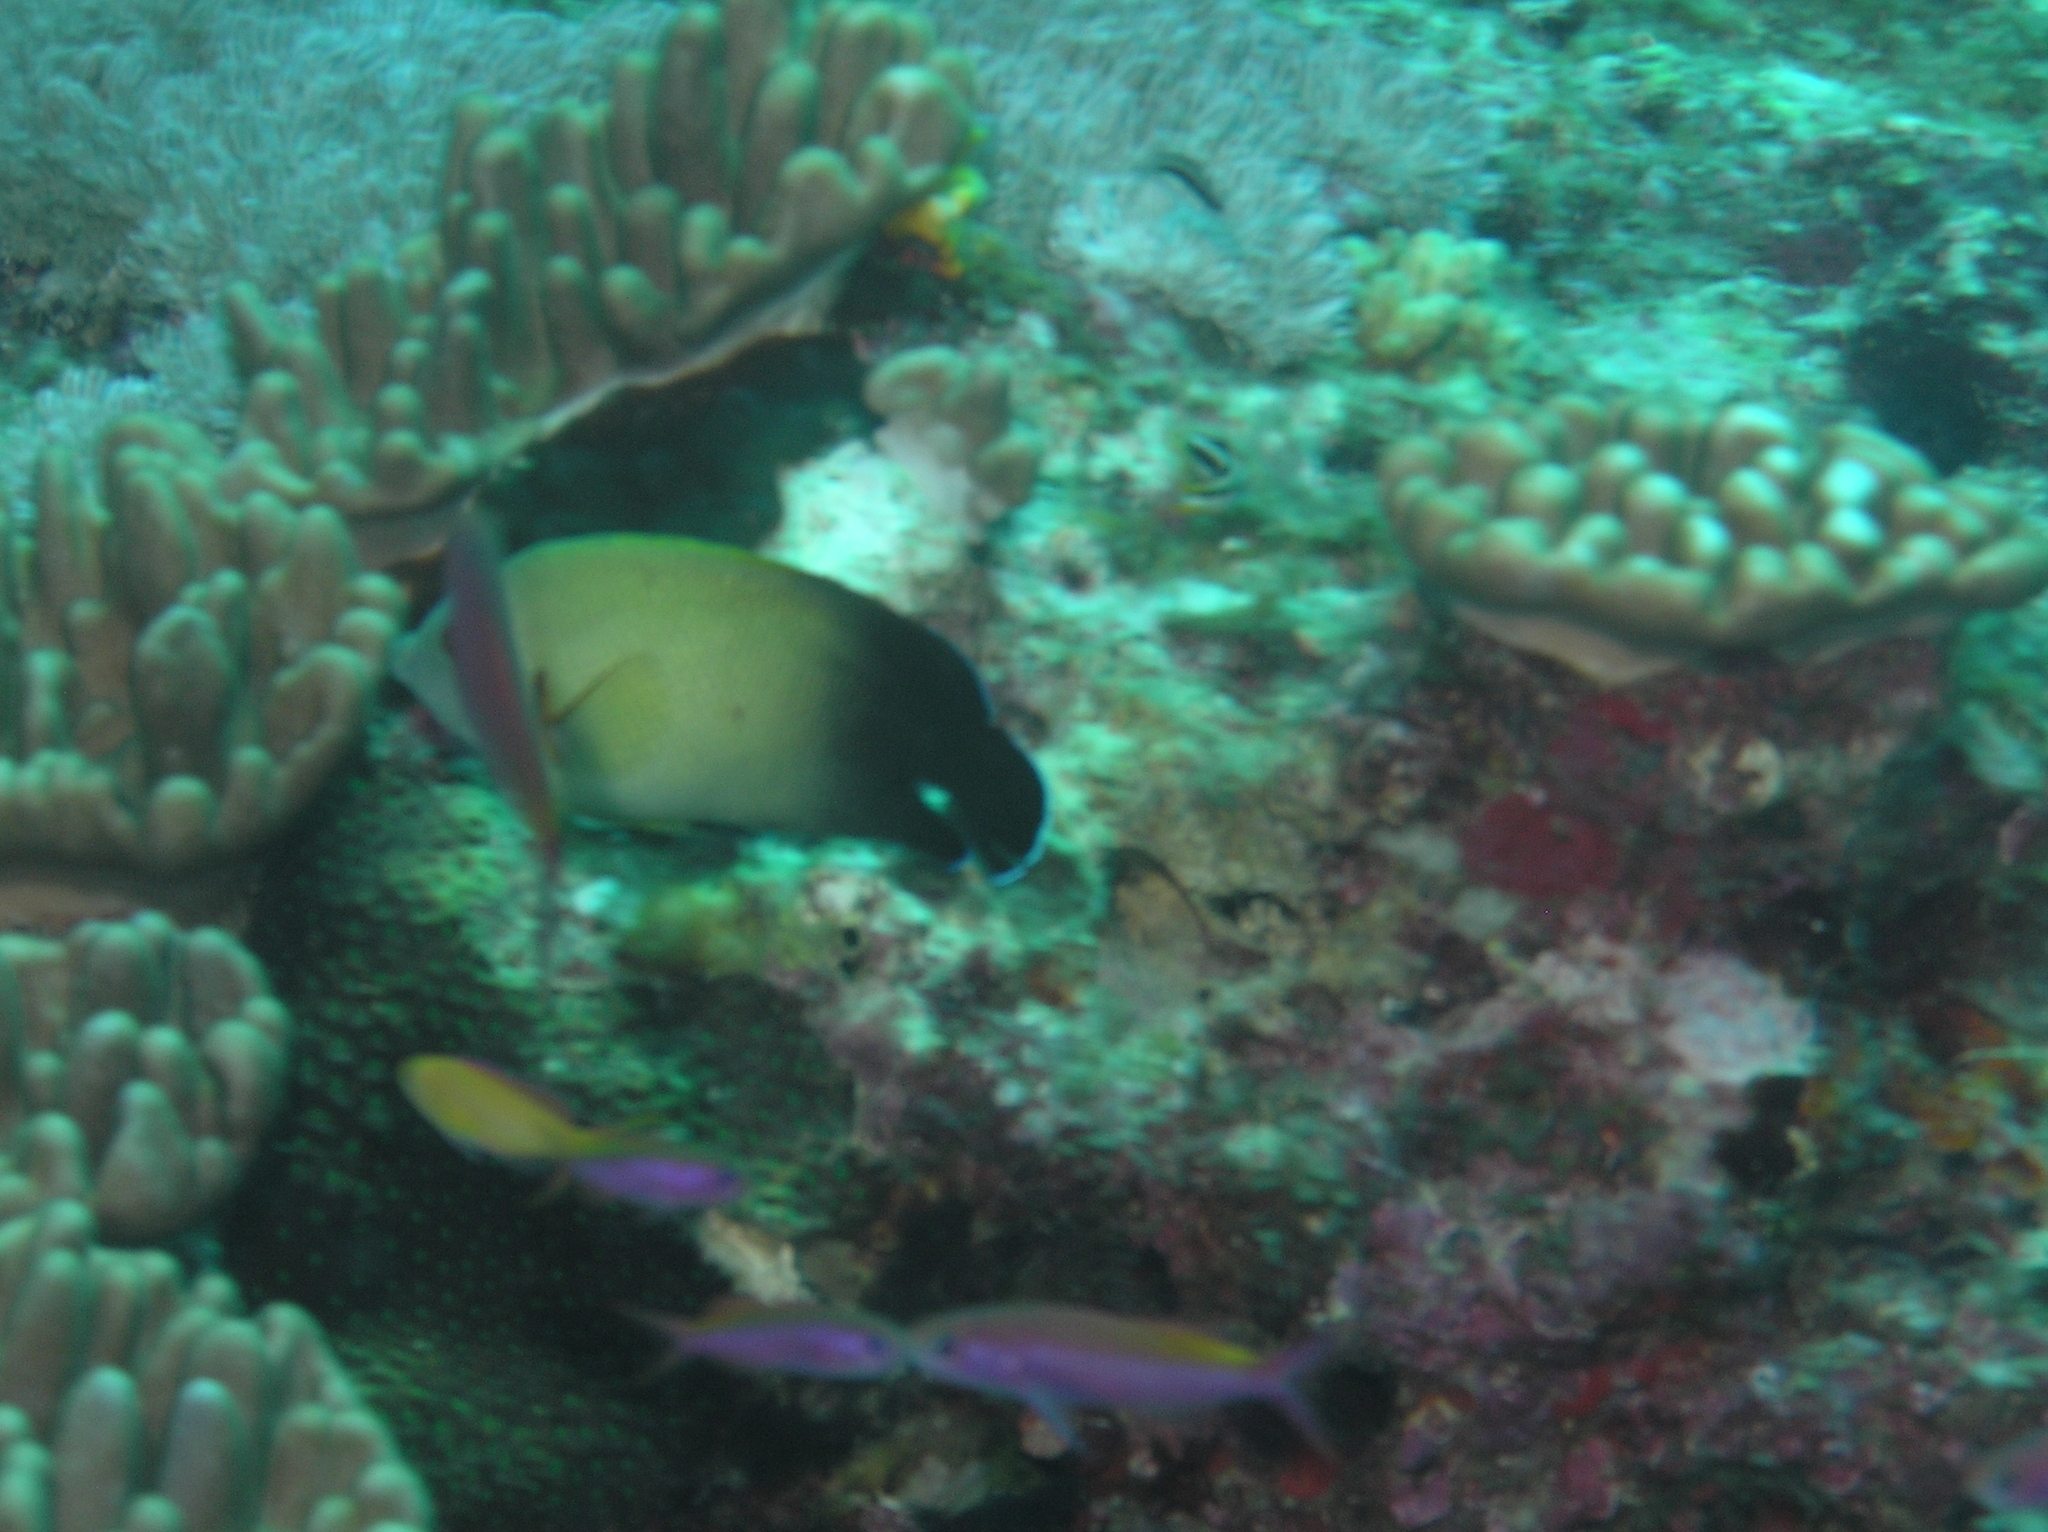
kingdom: Animalia
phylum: Chordata
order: Perciformes
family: Pomacanthidae
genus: Centropyge
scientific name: Centropyge vrolikii
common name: Pearlscale angelfish
